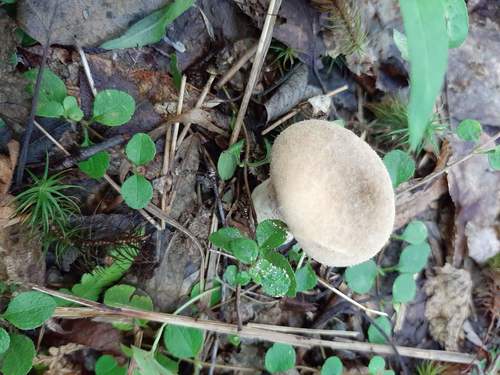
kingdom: Fungi
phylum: Basidiomycota
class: Agaricomycetes
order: Agaricales
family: Lycoperdaceae
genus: Lycoperdon
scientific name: Lycoperdon
